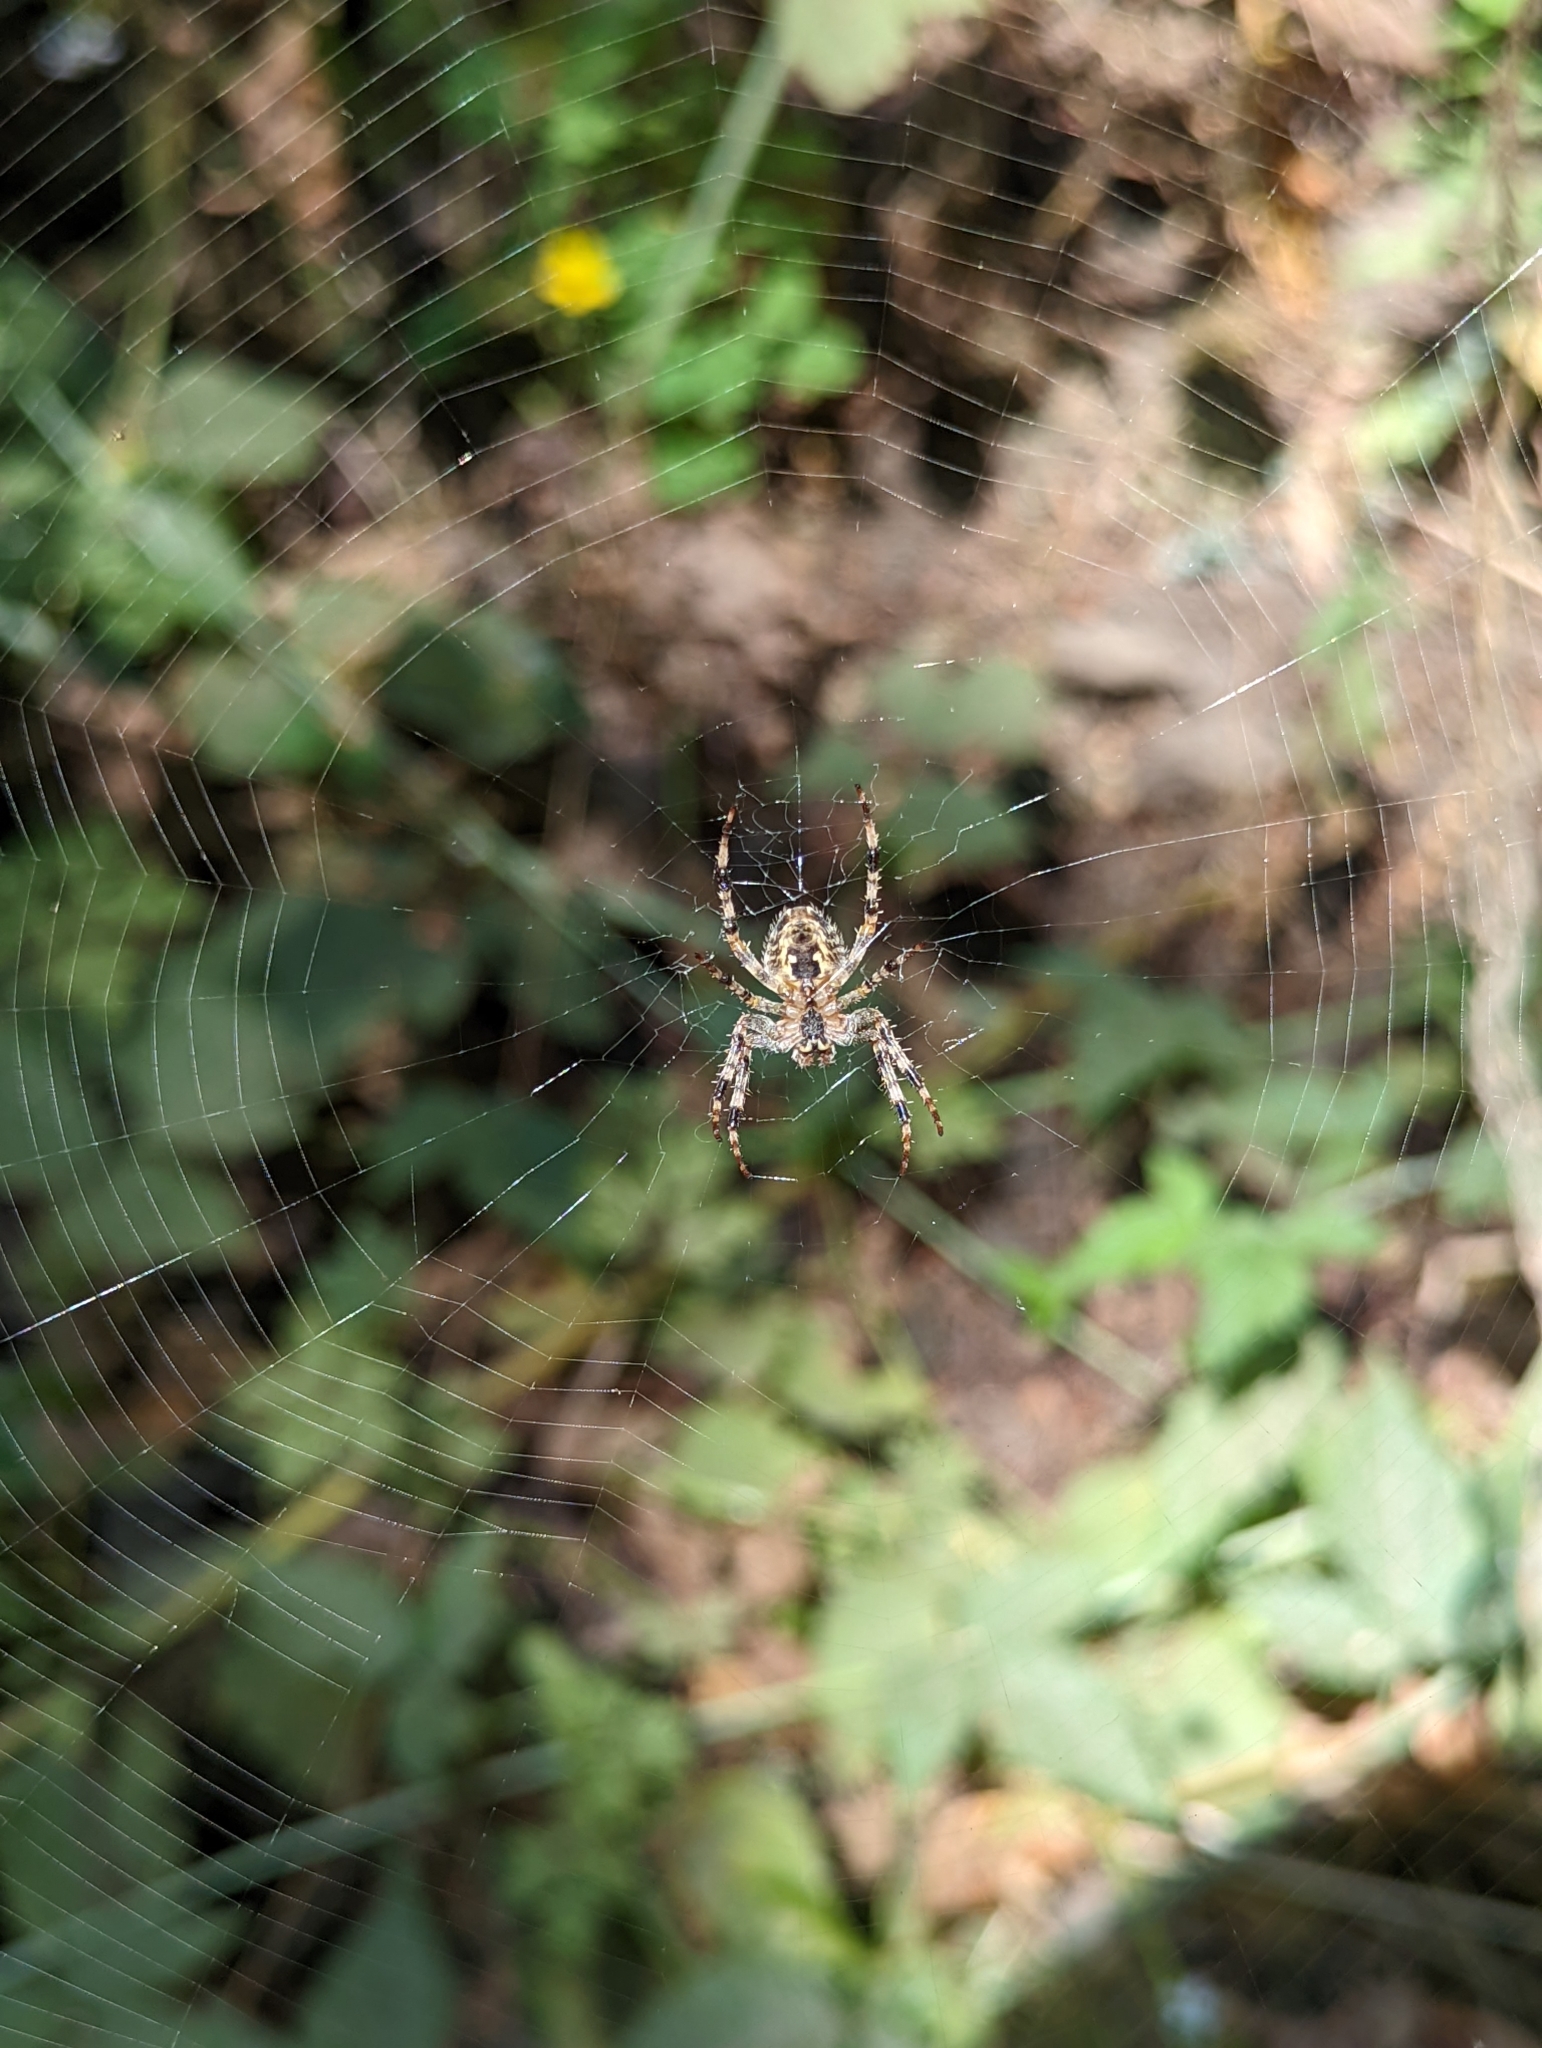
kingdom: Animalia
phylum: Arthropoda
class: Arachnida
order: Araneae
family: Araneidae
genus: Araneus
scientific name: Araneus diadematus
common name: Cross orbweaver
